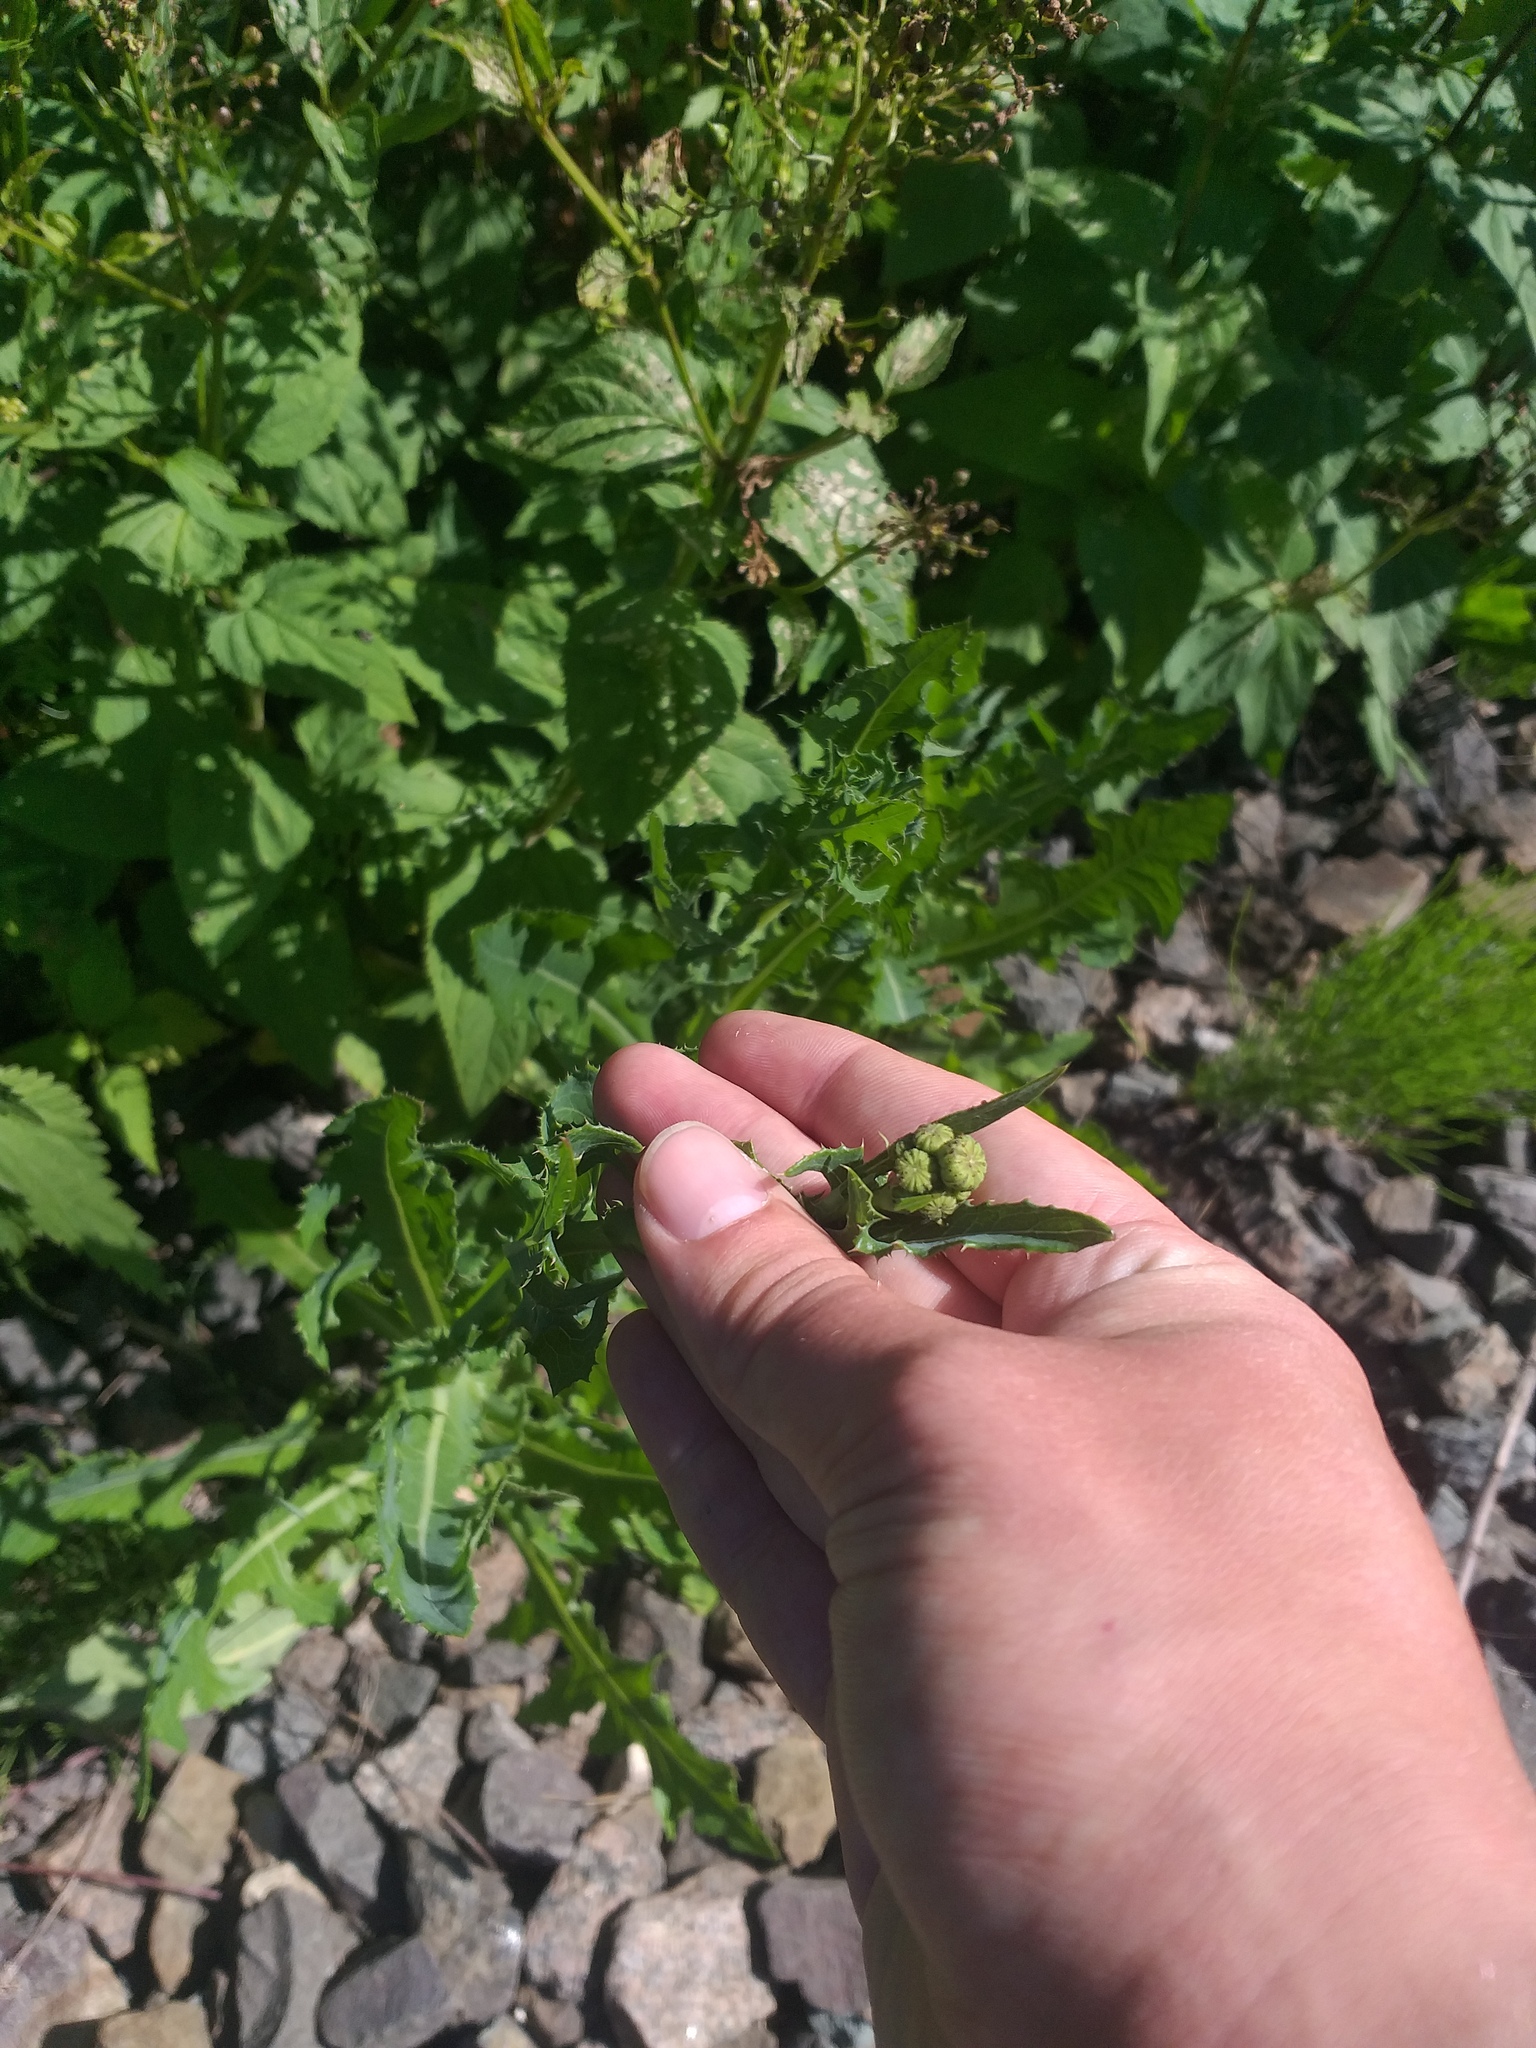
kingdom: Plantae
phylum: Tracheophyta
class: Magnoliopsida
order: Asterales
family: Asteraceae
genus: Sonchus
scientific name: Sonchus arvensis
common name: Perennial sow-thistle
